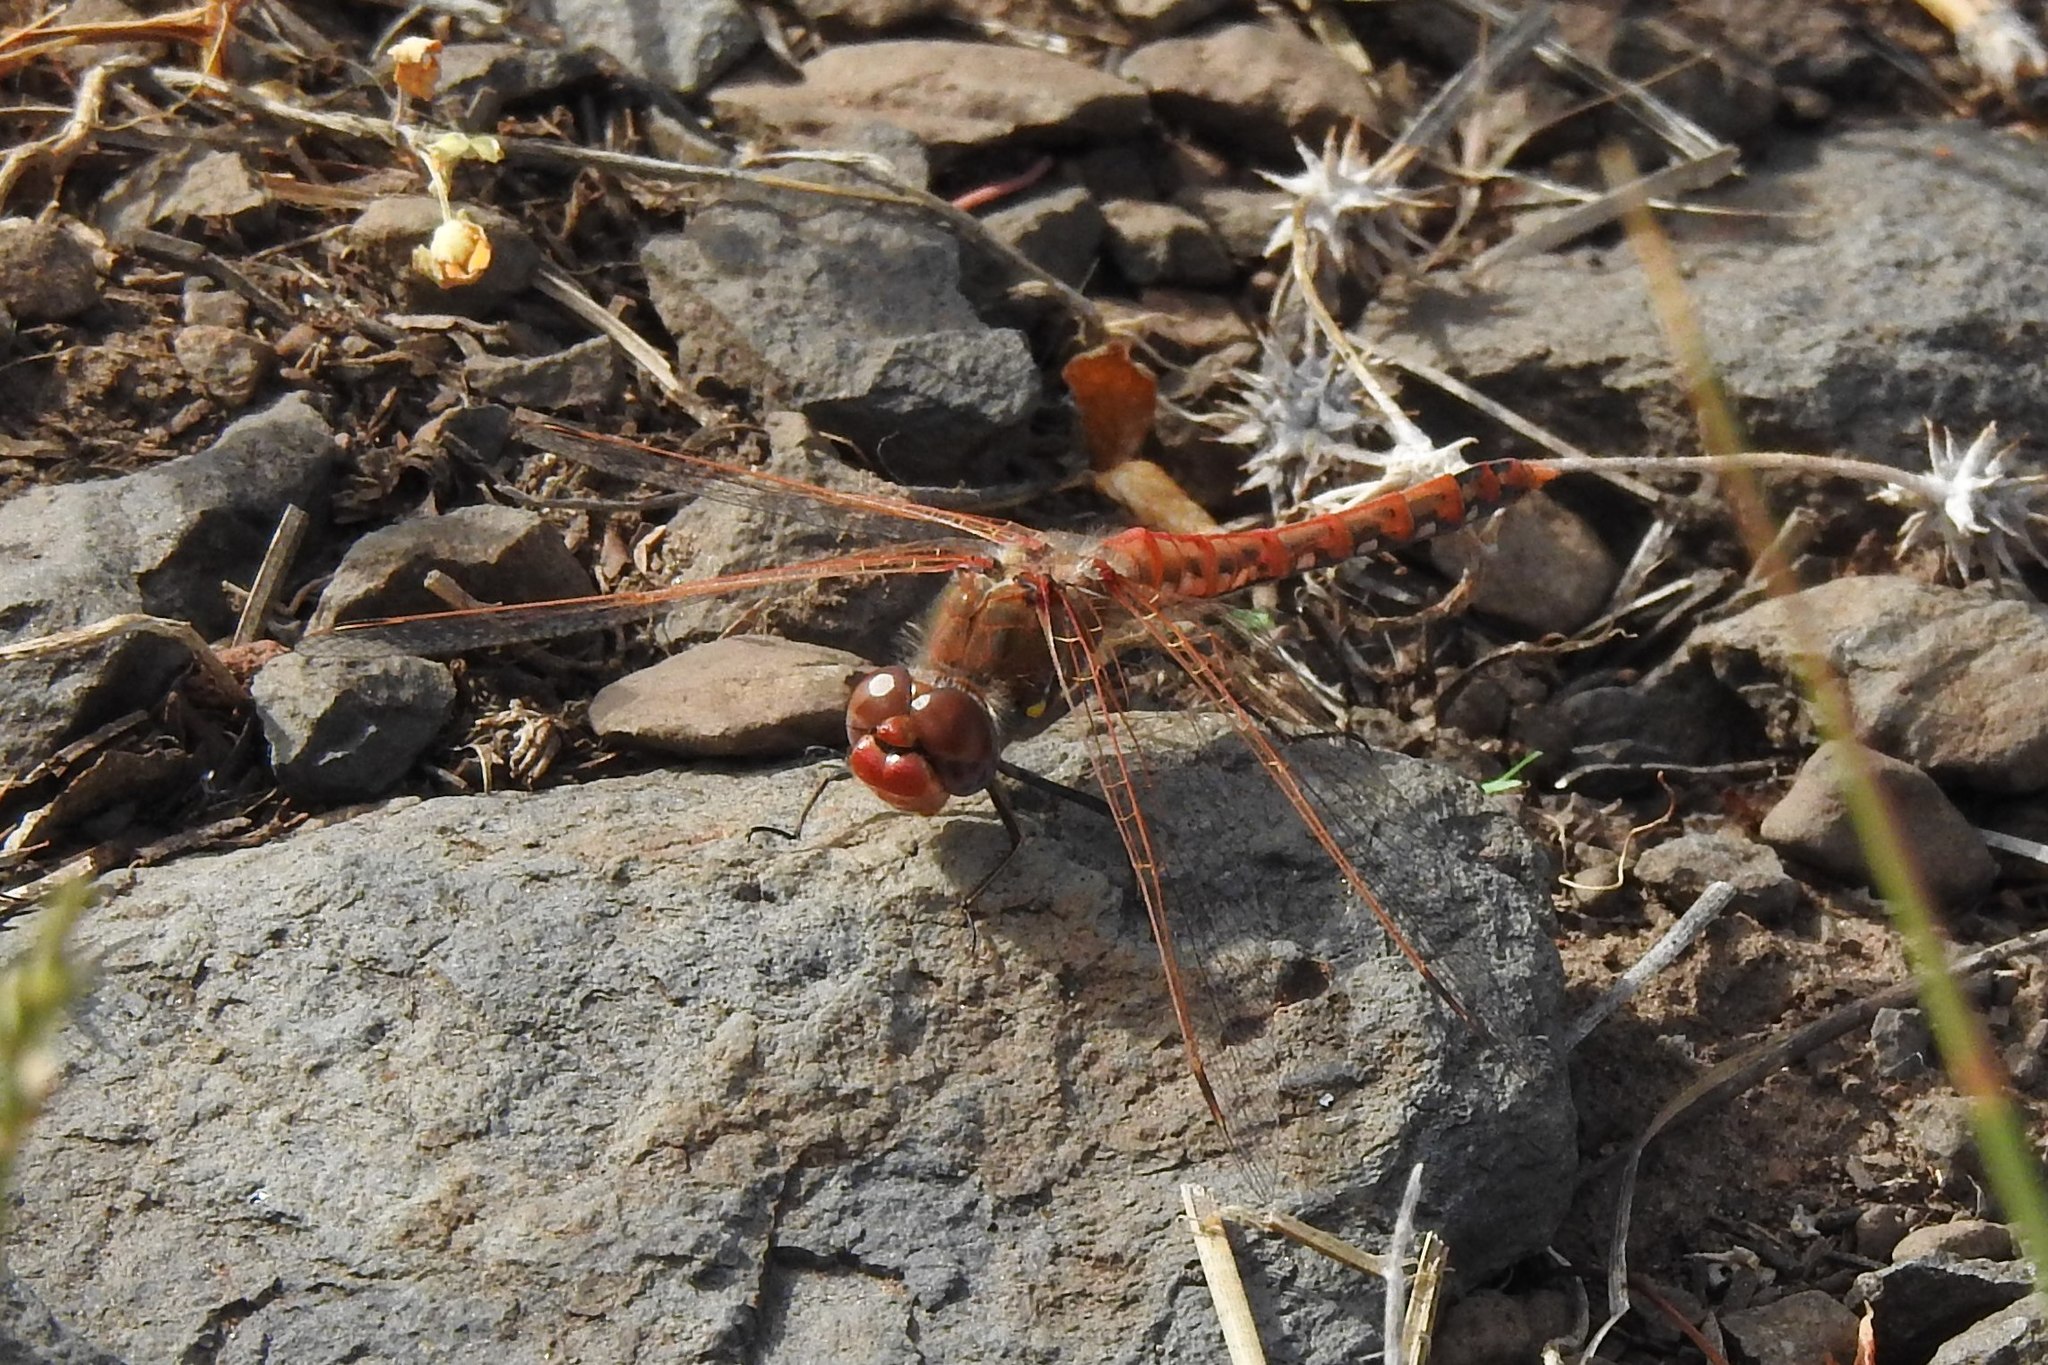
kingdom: Animalia
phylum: Arthropoda
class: Insecta
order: Odonata
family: Libellulidae
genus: Sympetrum
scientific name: Sympetrum corruptum
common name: Variegated meadowhawk
